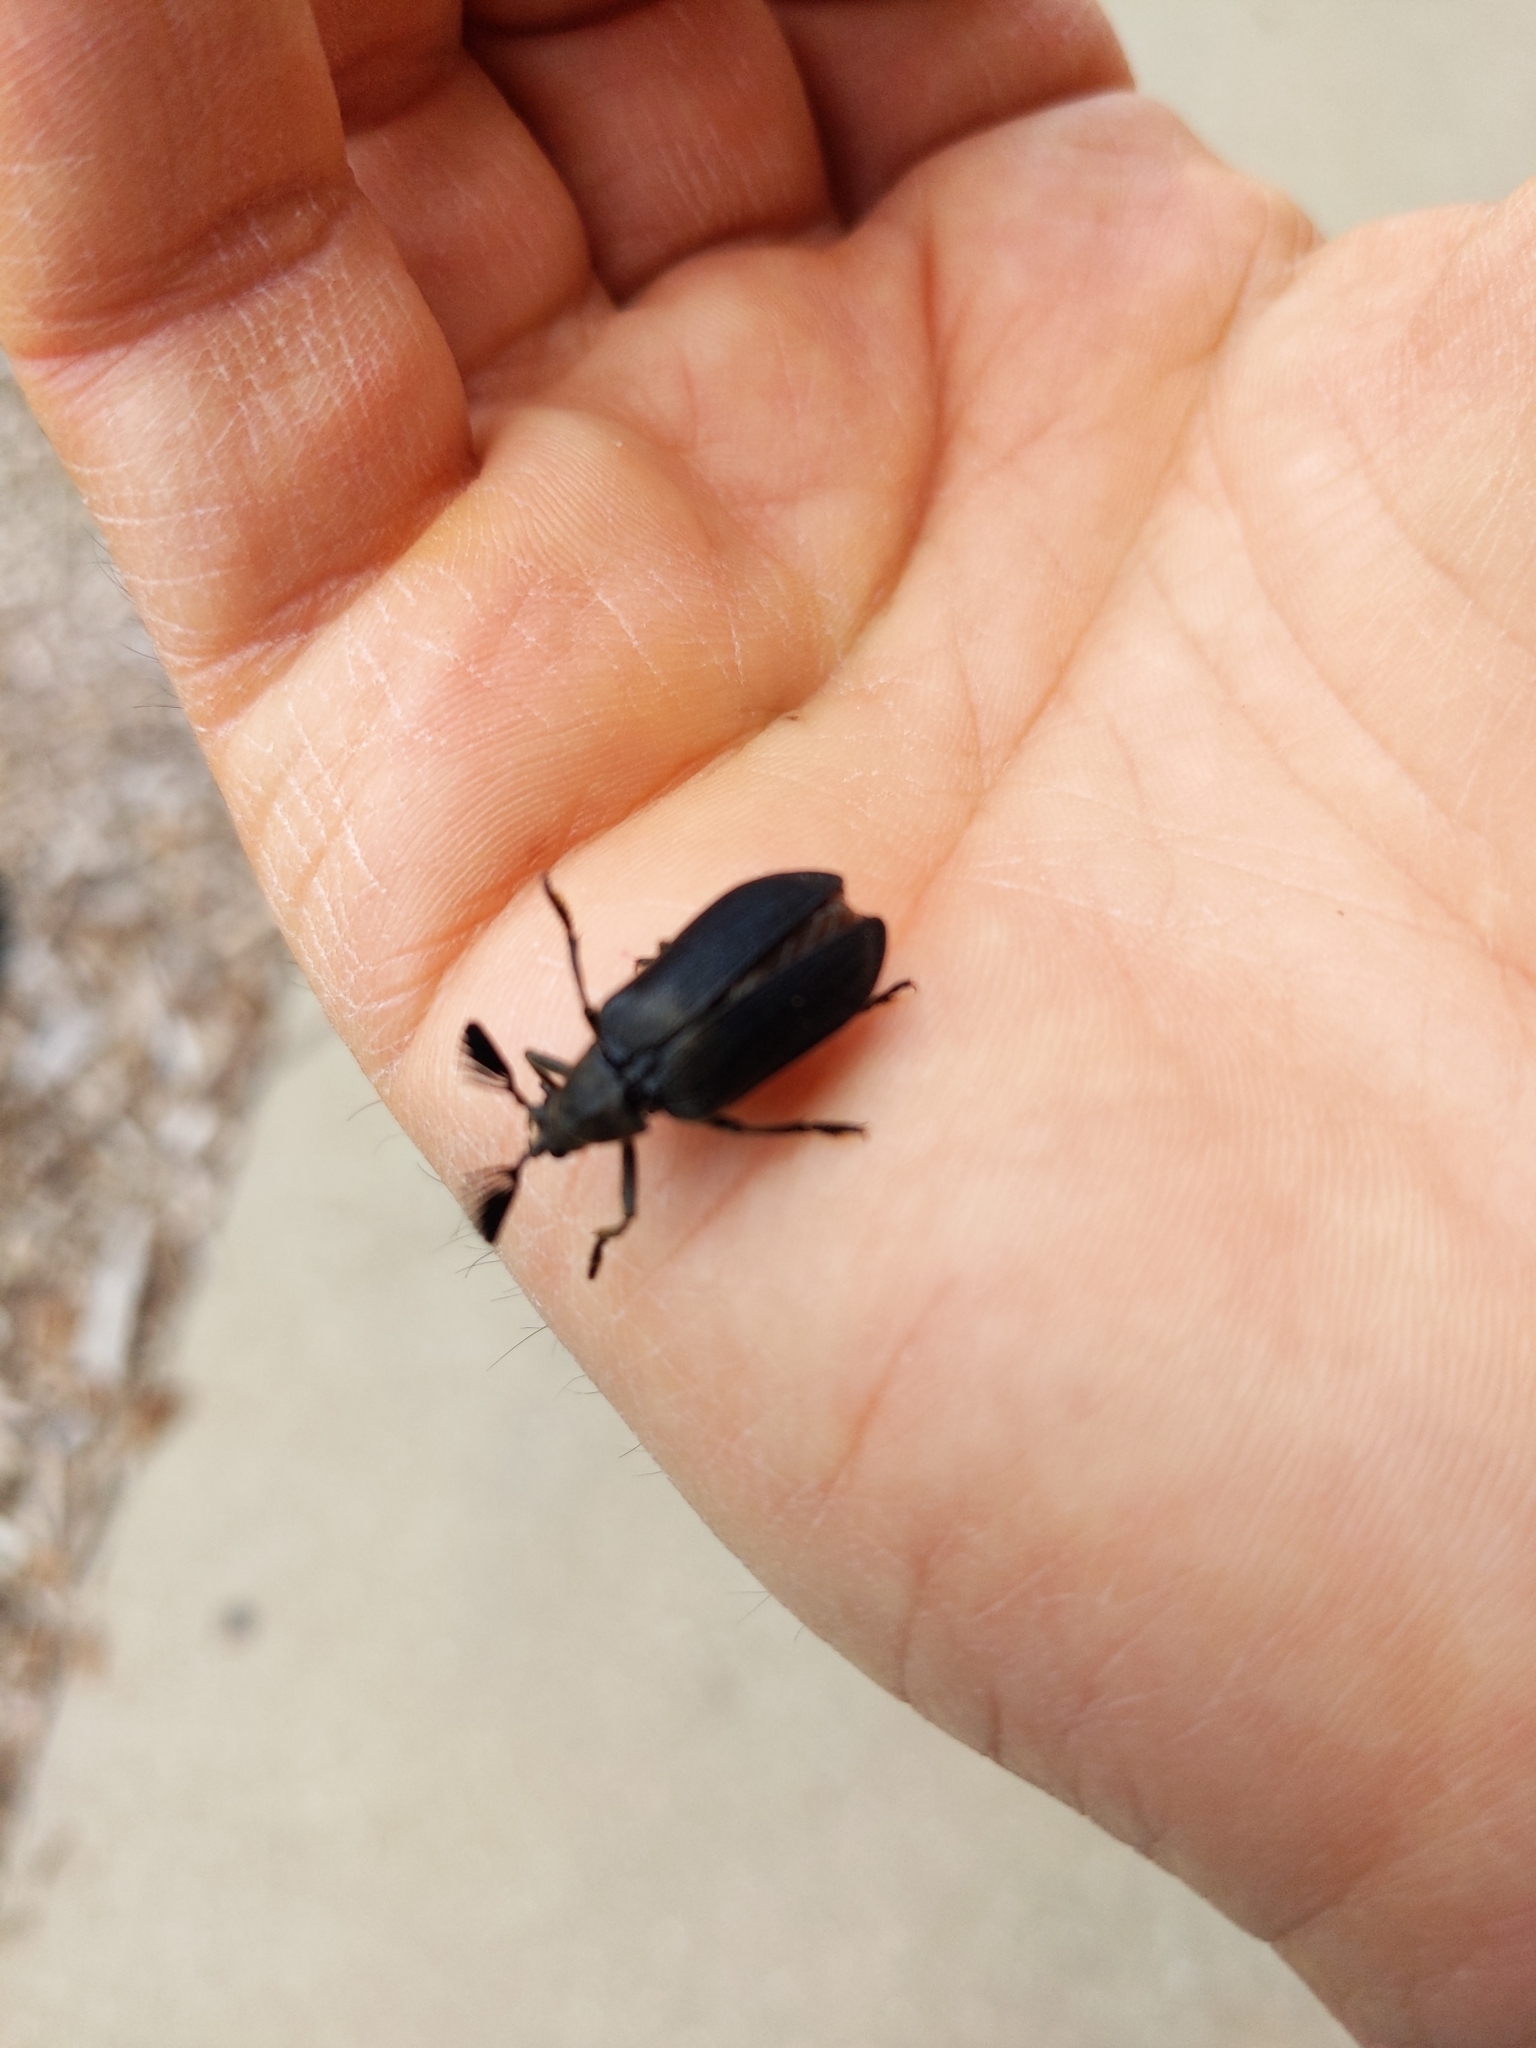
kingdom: Animalia
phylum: Arthropoda
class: Insecta
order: Coleoptera
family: Rhipiceridae
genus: Sandalus
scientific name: Sandalus niger
